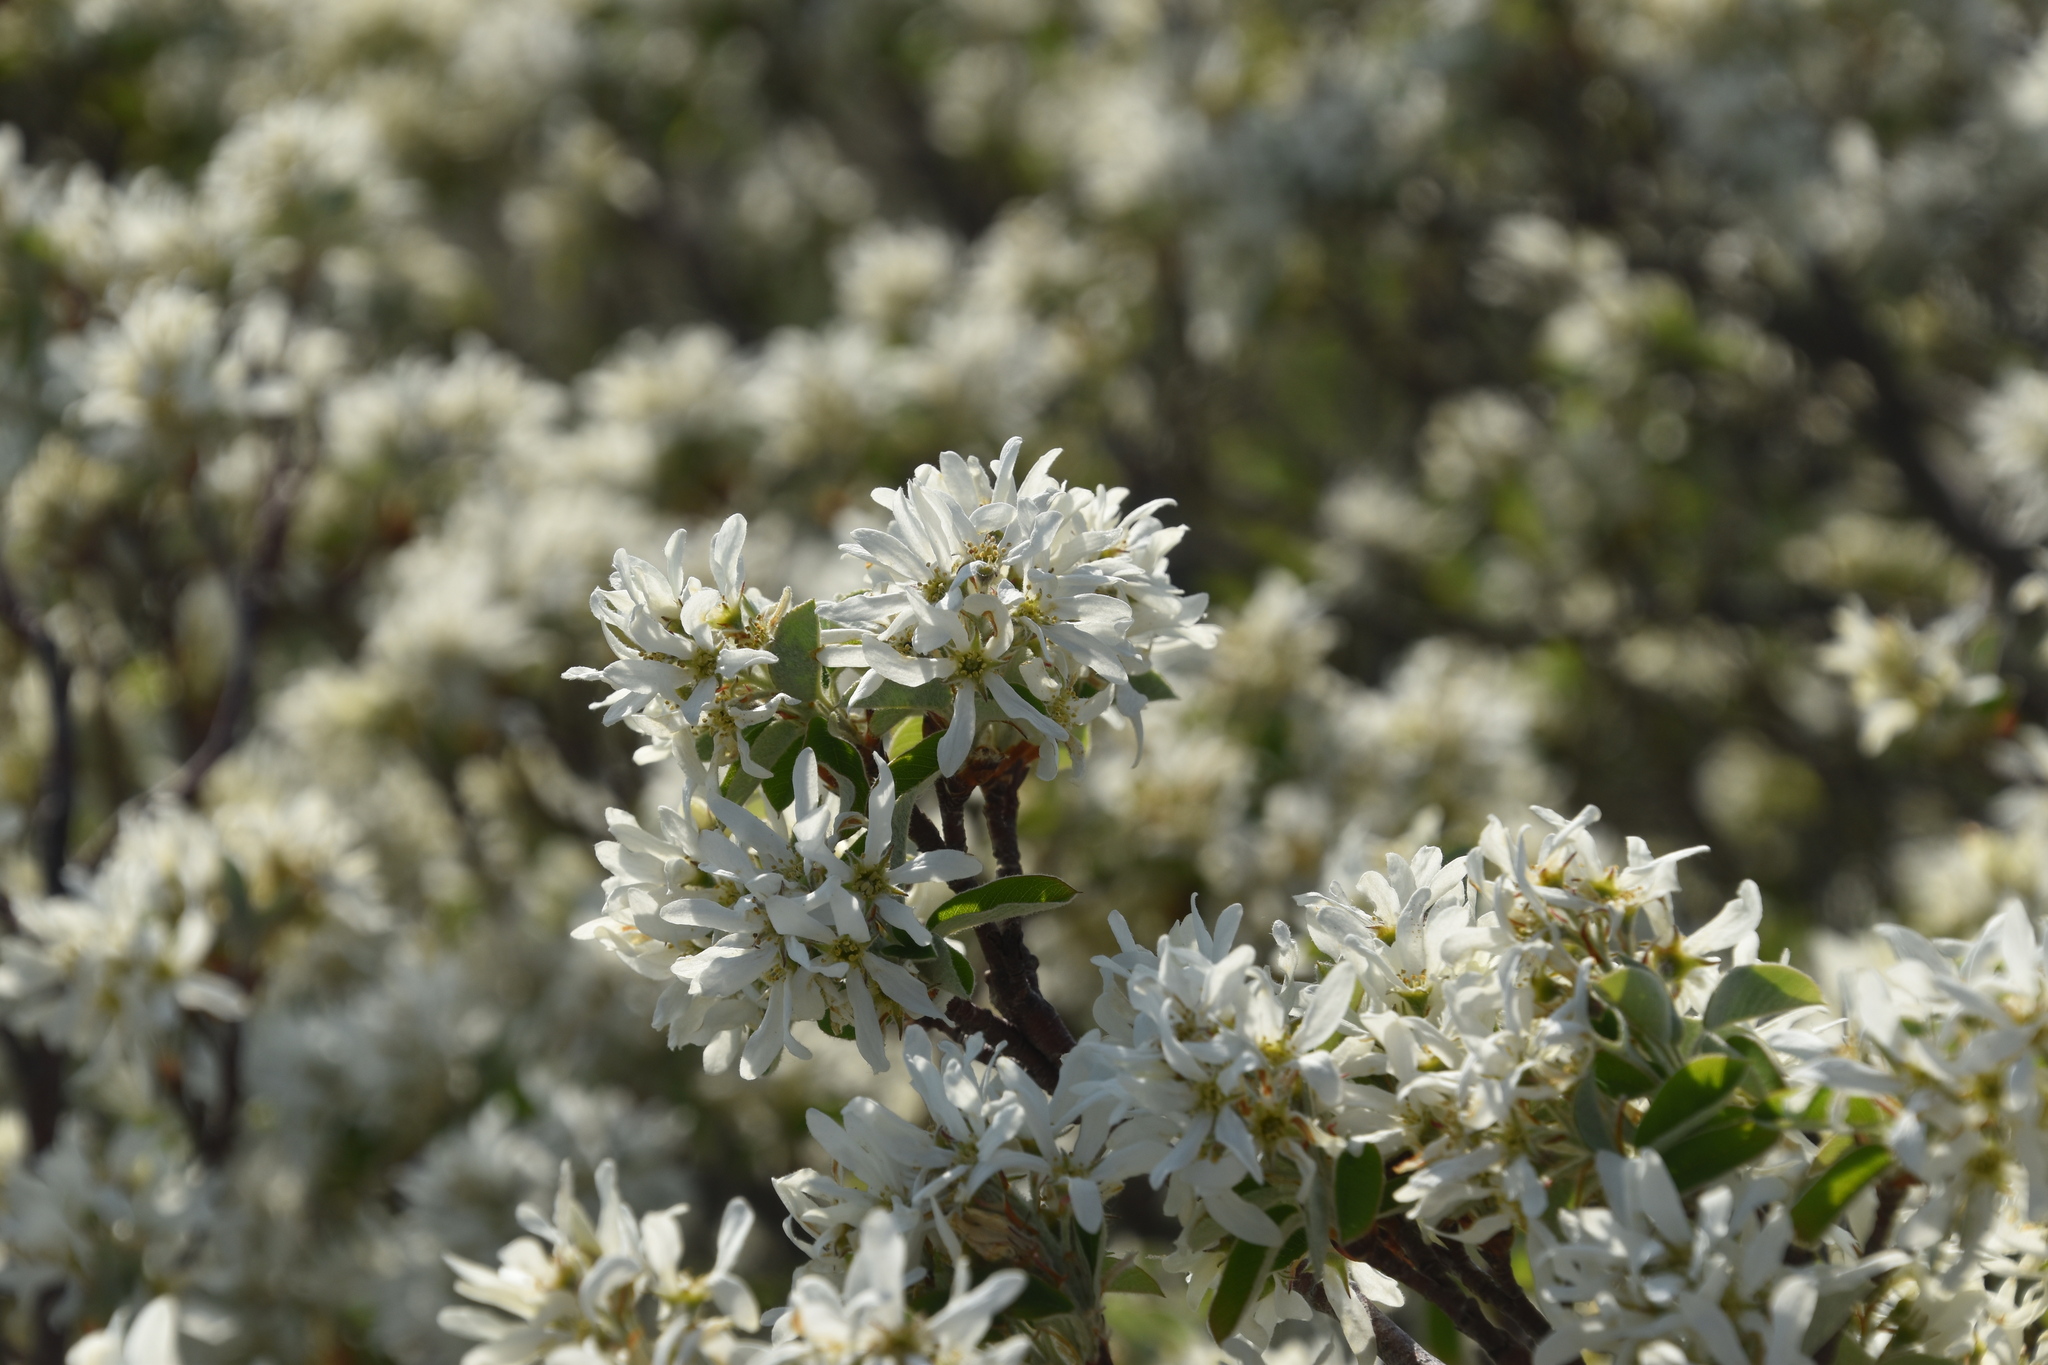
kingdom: Plantae
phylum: Tracheophyta
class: Magnoliopsida
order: Rosales
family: Rosaceae
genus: Amelanchier
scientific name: Amelanchier ovalis
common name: Serviceberry
